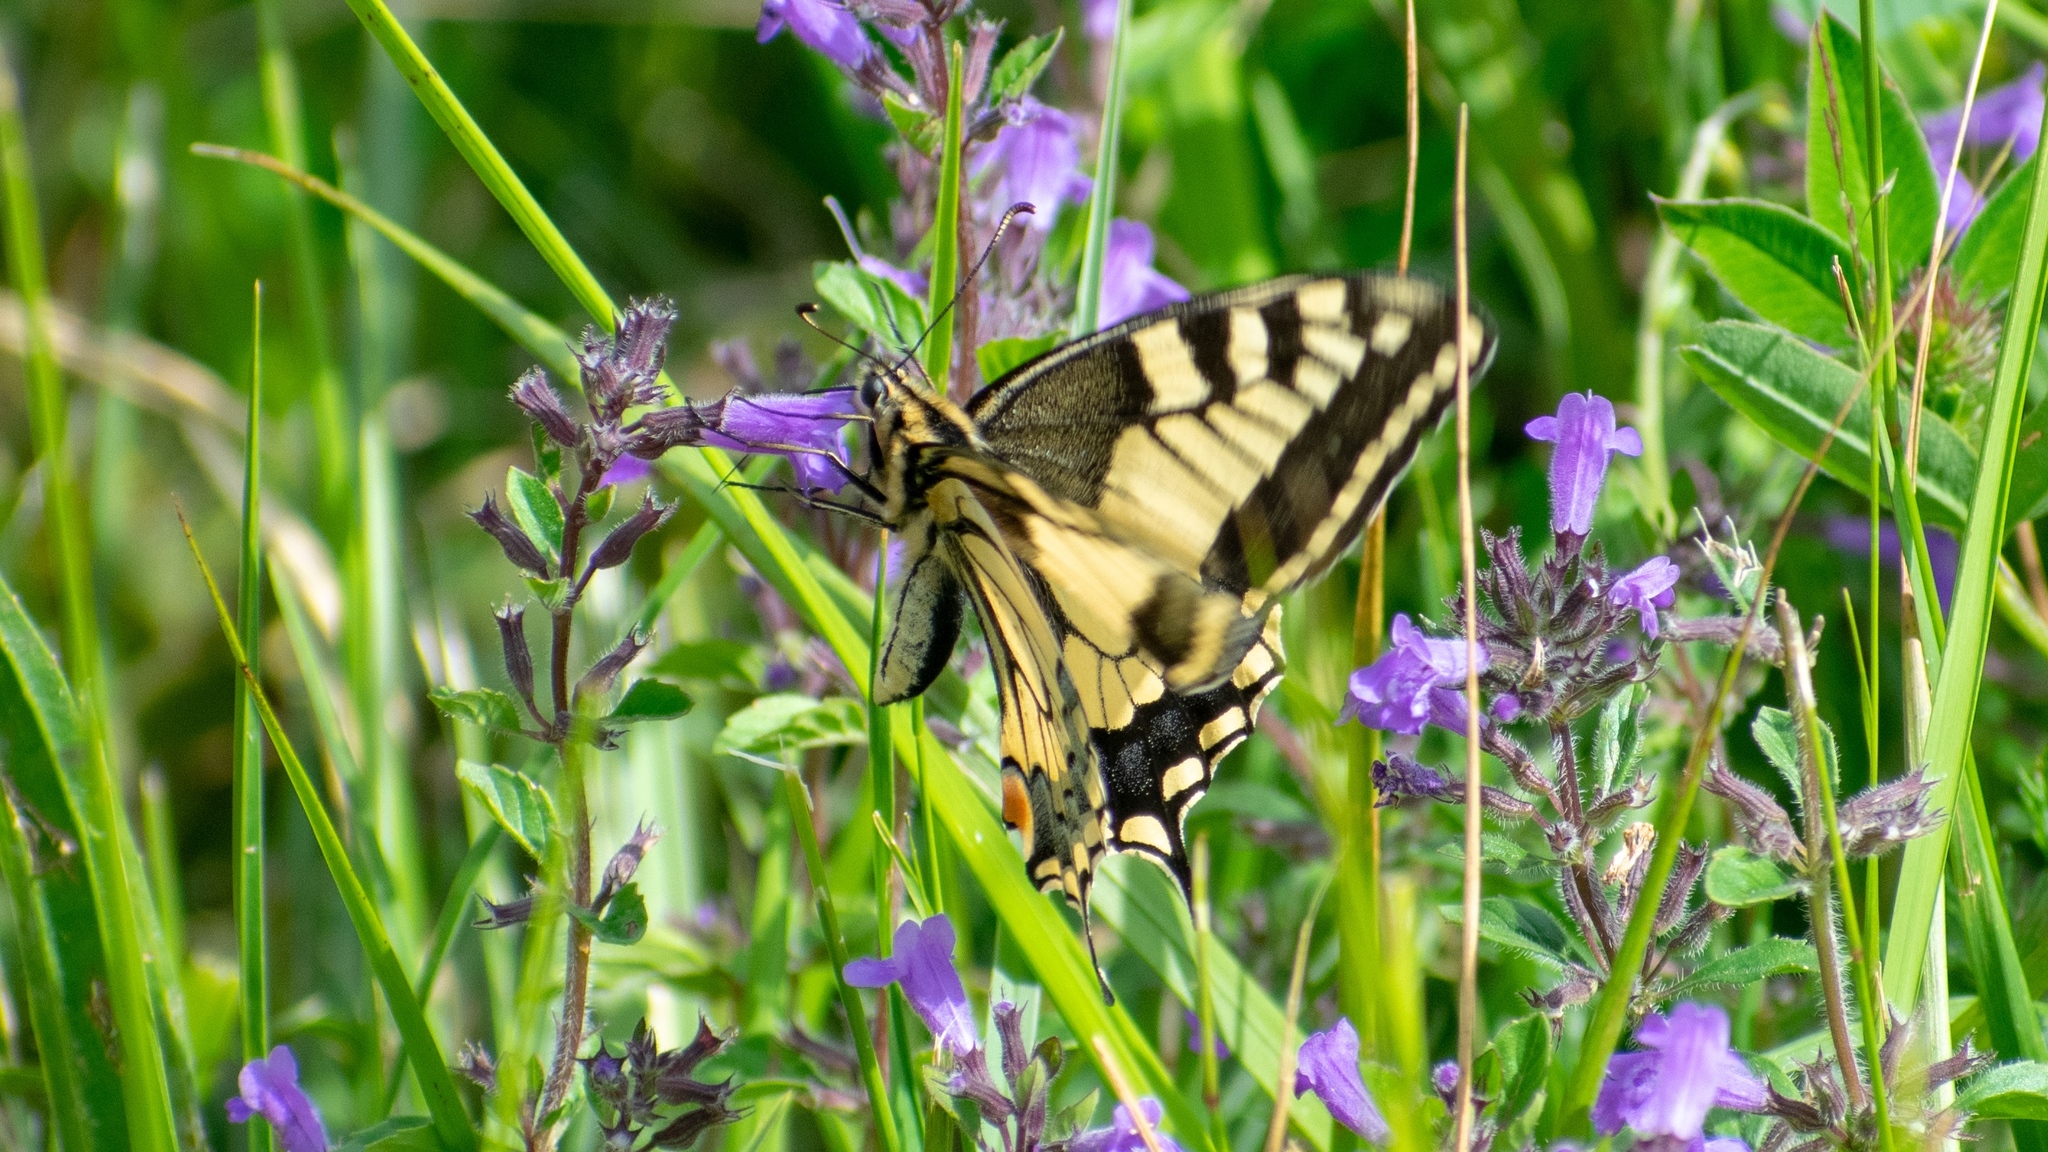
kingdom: Animalia
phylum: Arthropoda
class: Insecta
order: Lepidoptera
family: Papilionidae
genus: Papilio
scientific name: Papilio machaon
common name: Swallowtail
